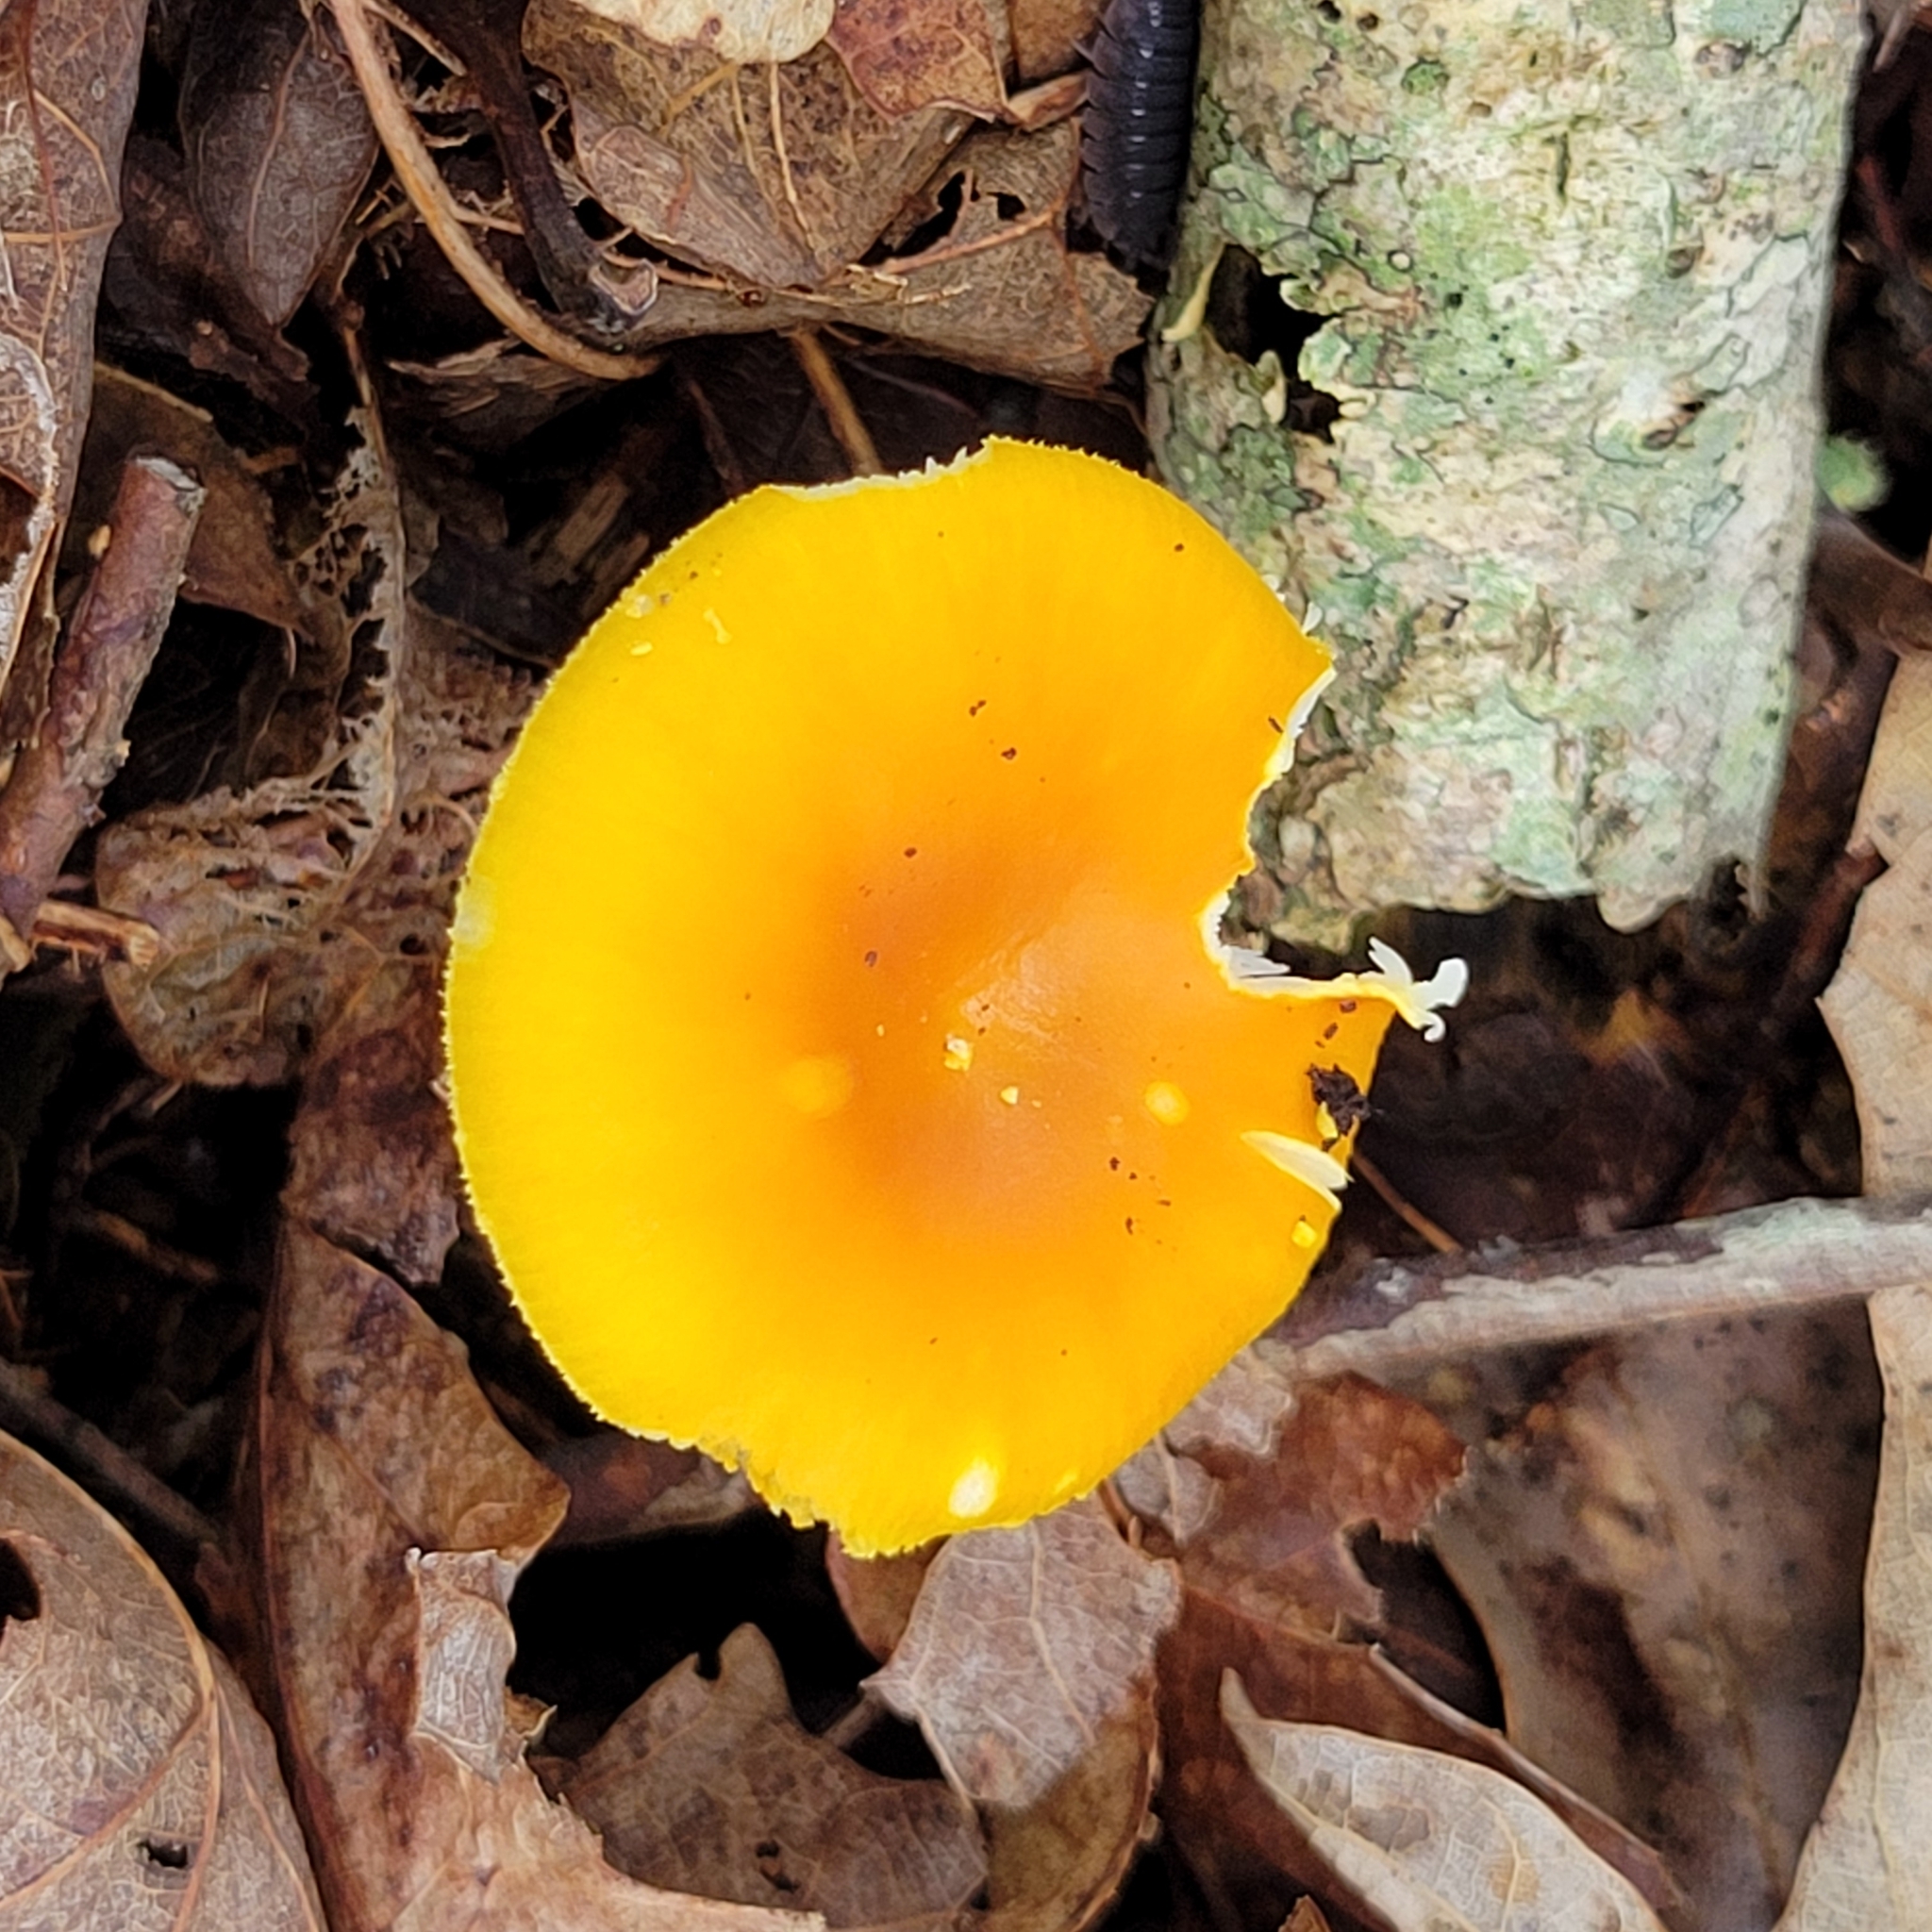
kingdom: Fungi
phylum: Basidiomycota
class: Agaricomycetes
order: Agaricales
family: Amanitaceae
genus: Amanita
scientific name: Amanita flavoconia
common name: Yellow patches
